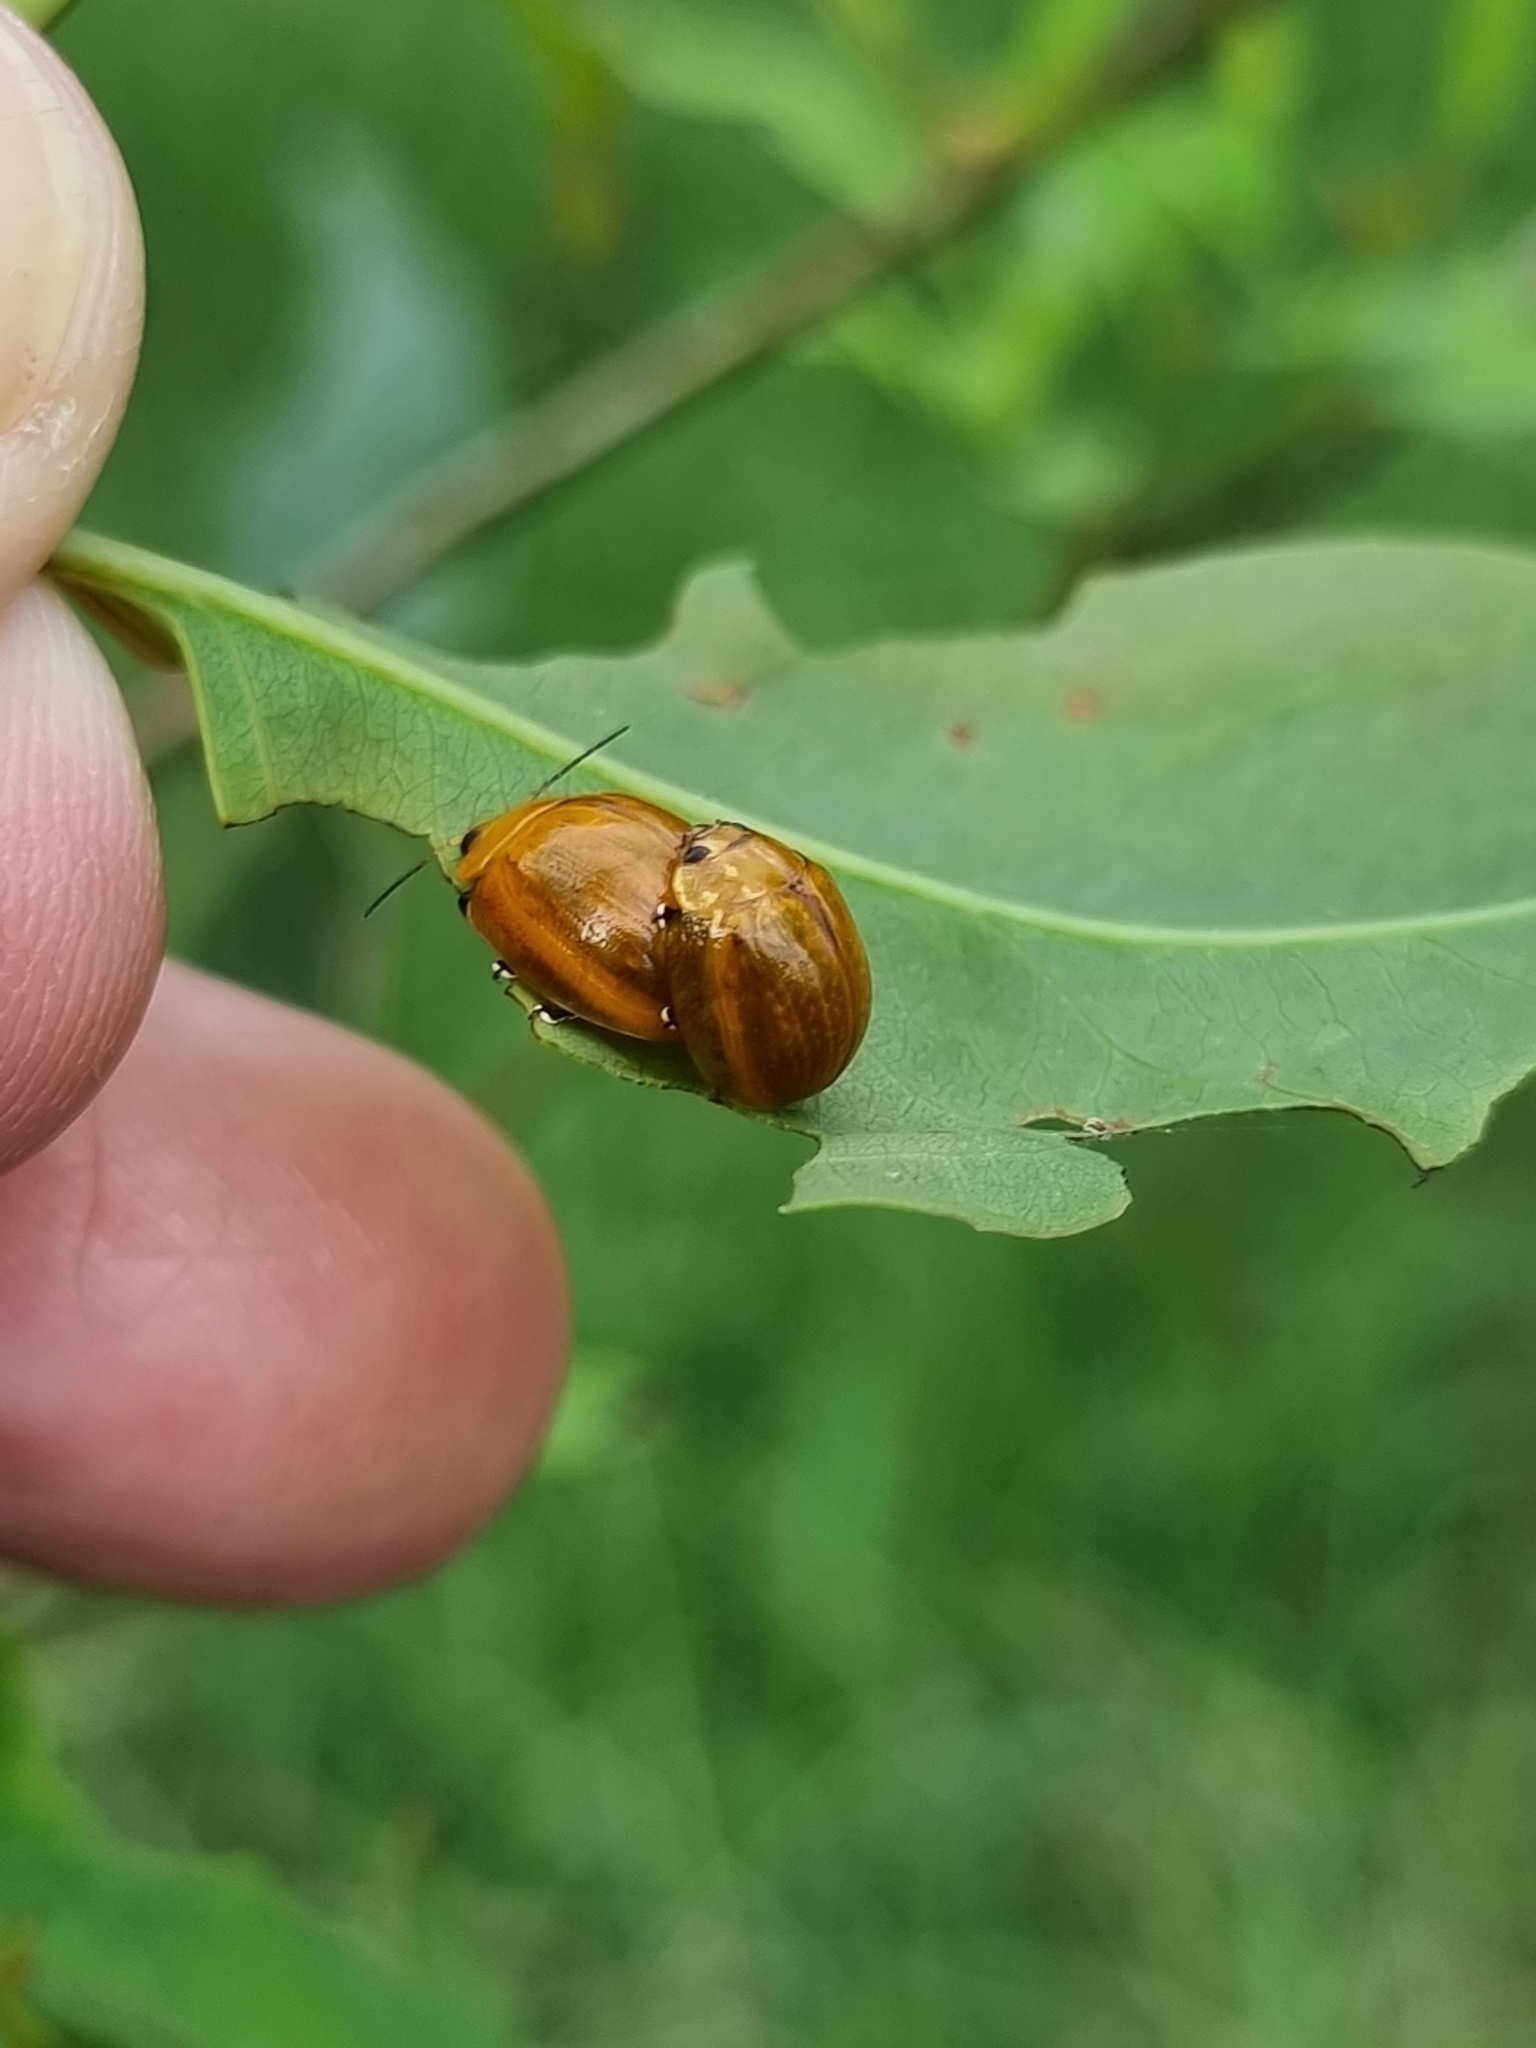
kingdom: Animalia
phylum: Arthropoda
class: Insecta
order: Coleoptera
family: Chrysomelidae
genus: Paropsisterna
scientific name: Paropsisterna cloelia
